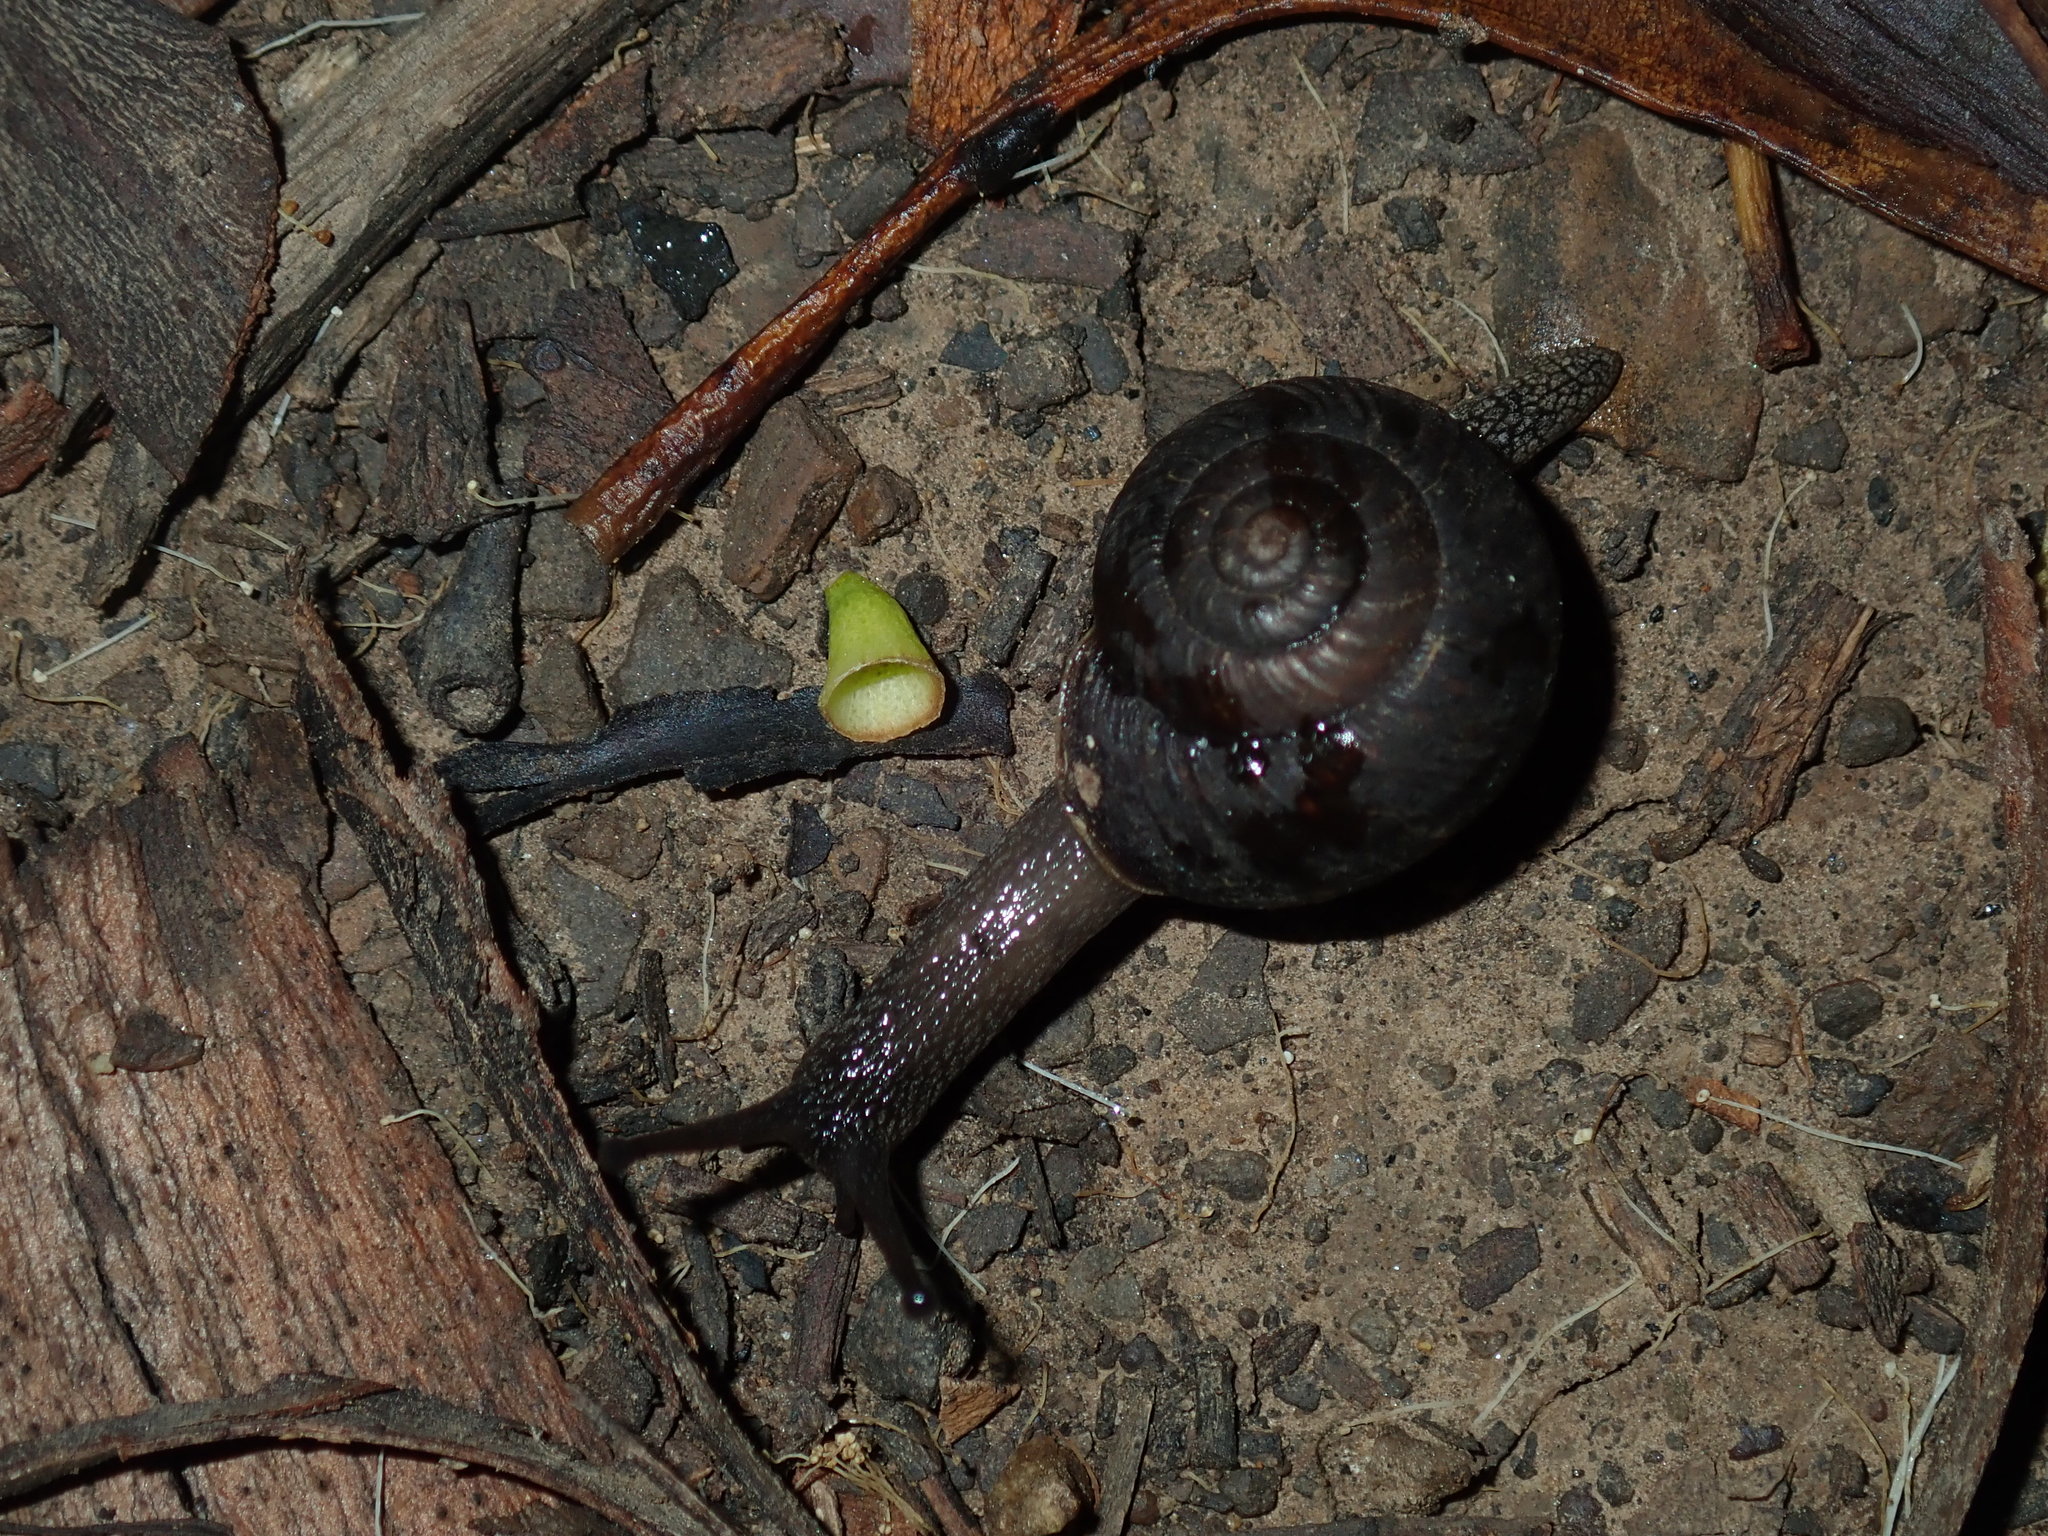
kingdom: Animalia
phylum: Mollusca
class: Gastropoda
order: Stylommatophora
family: Camaenidae
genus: Sauroconcha
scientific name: Sauroconcha sheai
